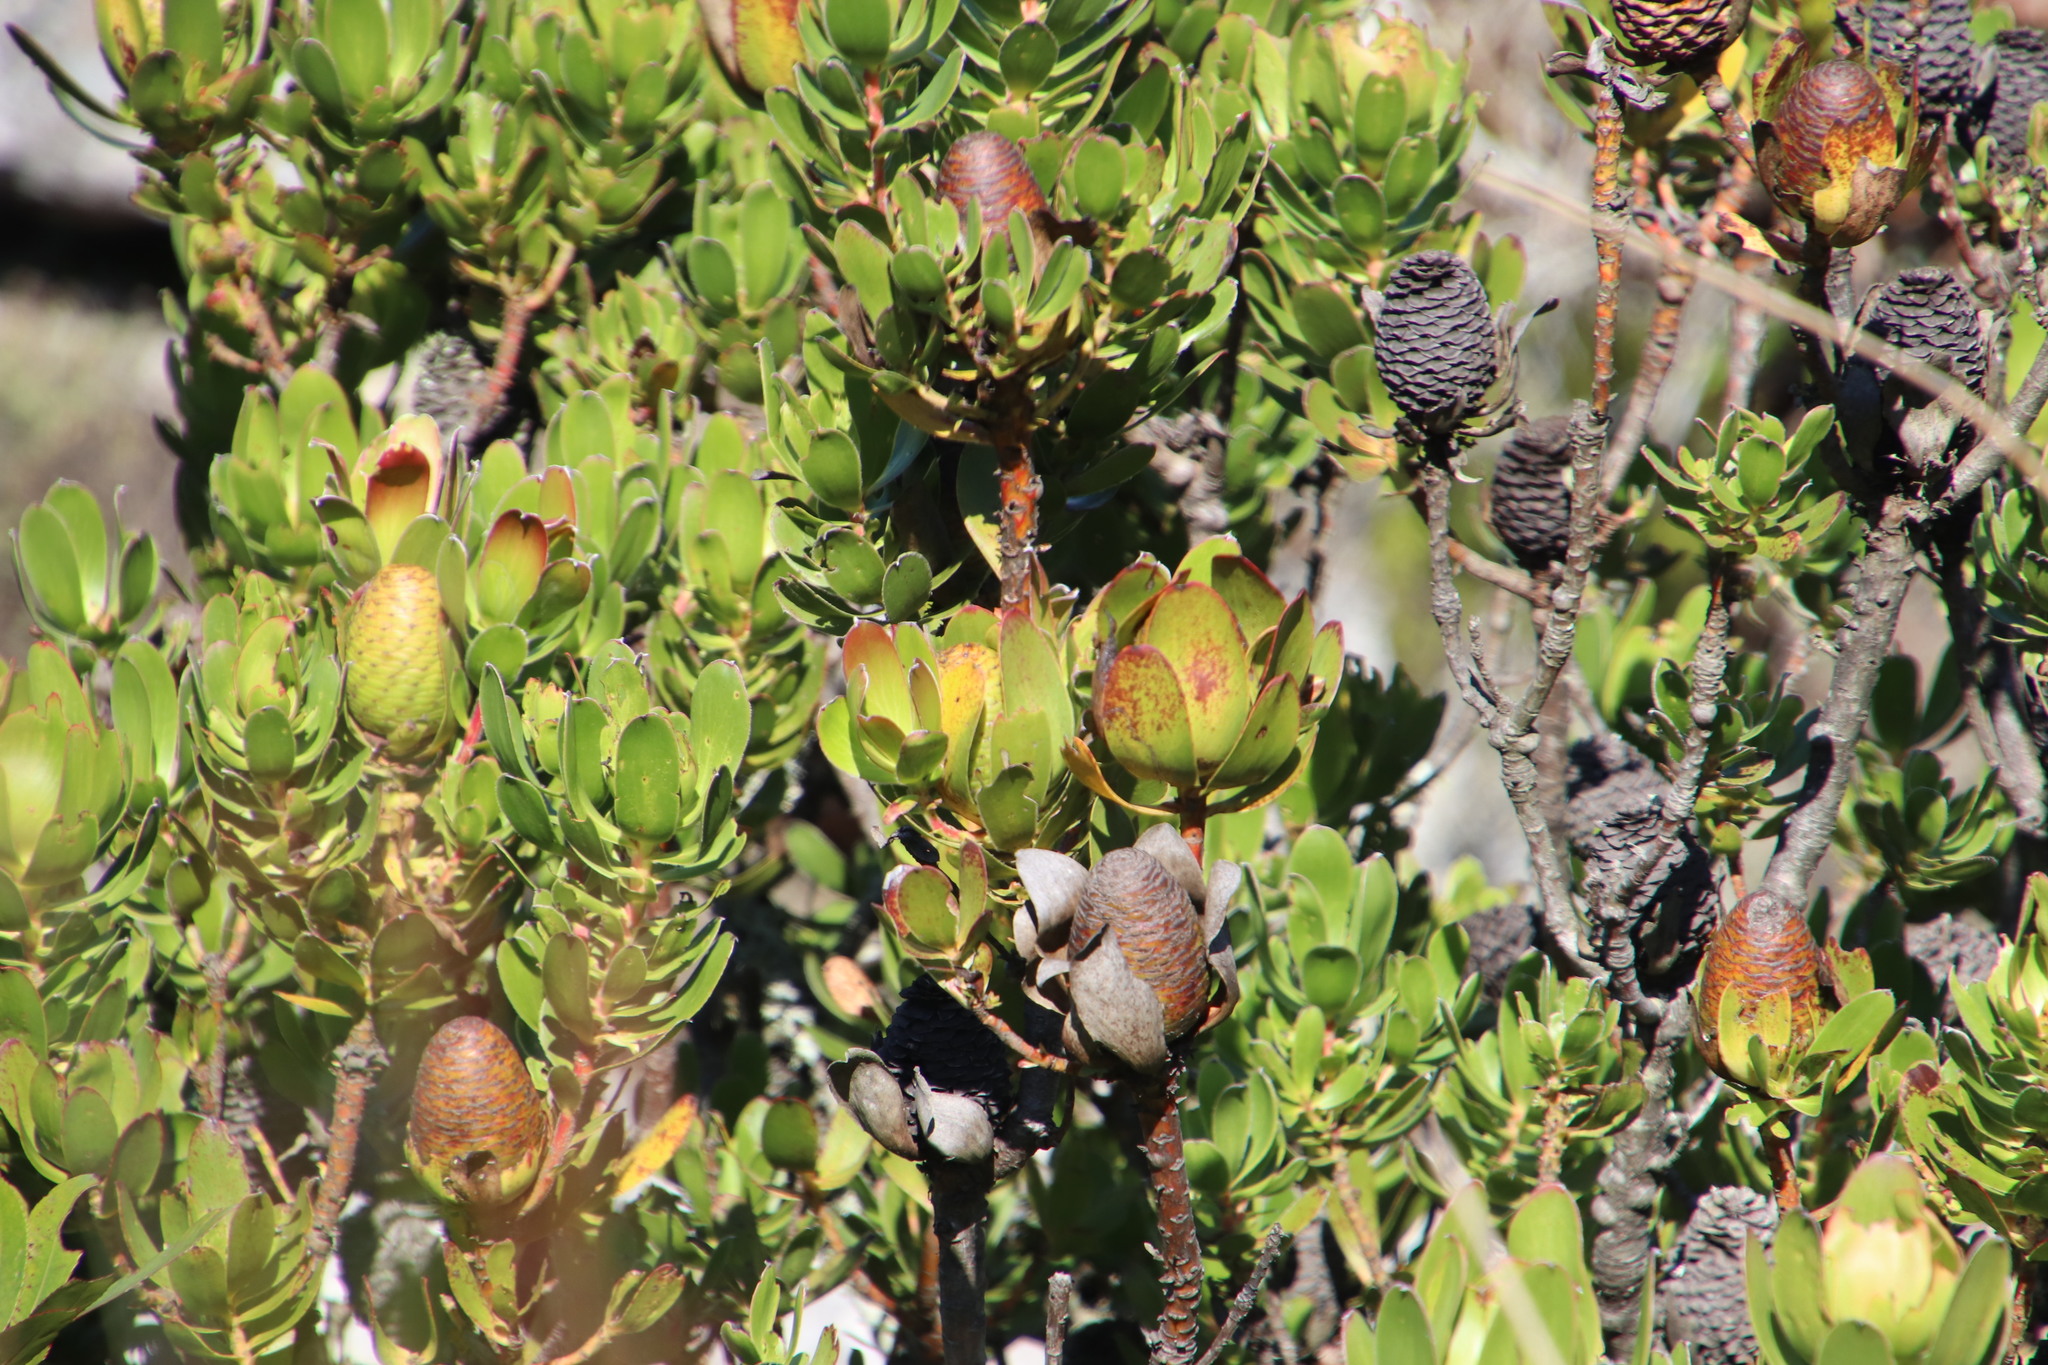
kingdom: Plantae
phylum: Tracheophyta
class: Magnoliopsida
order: Proteales
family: Proteaceae
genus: Leucadendron
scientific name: Leucadendron strobilinum
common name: Mountain rose
